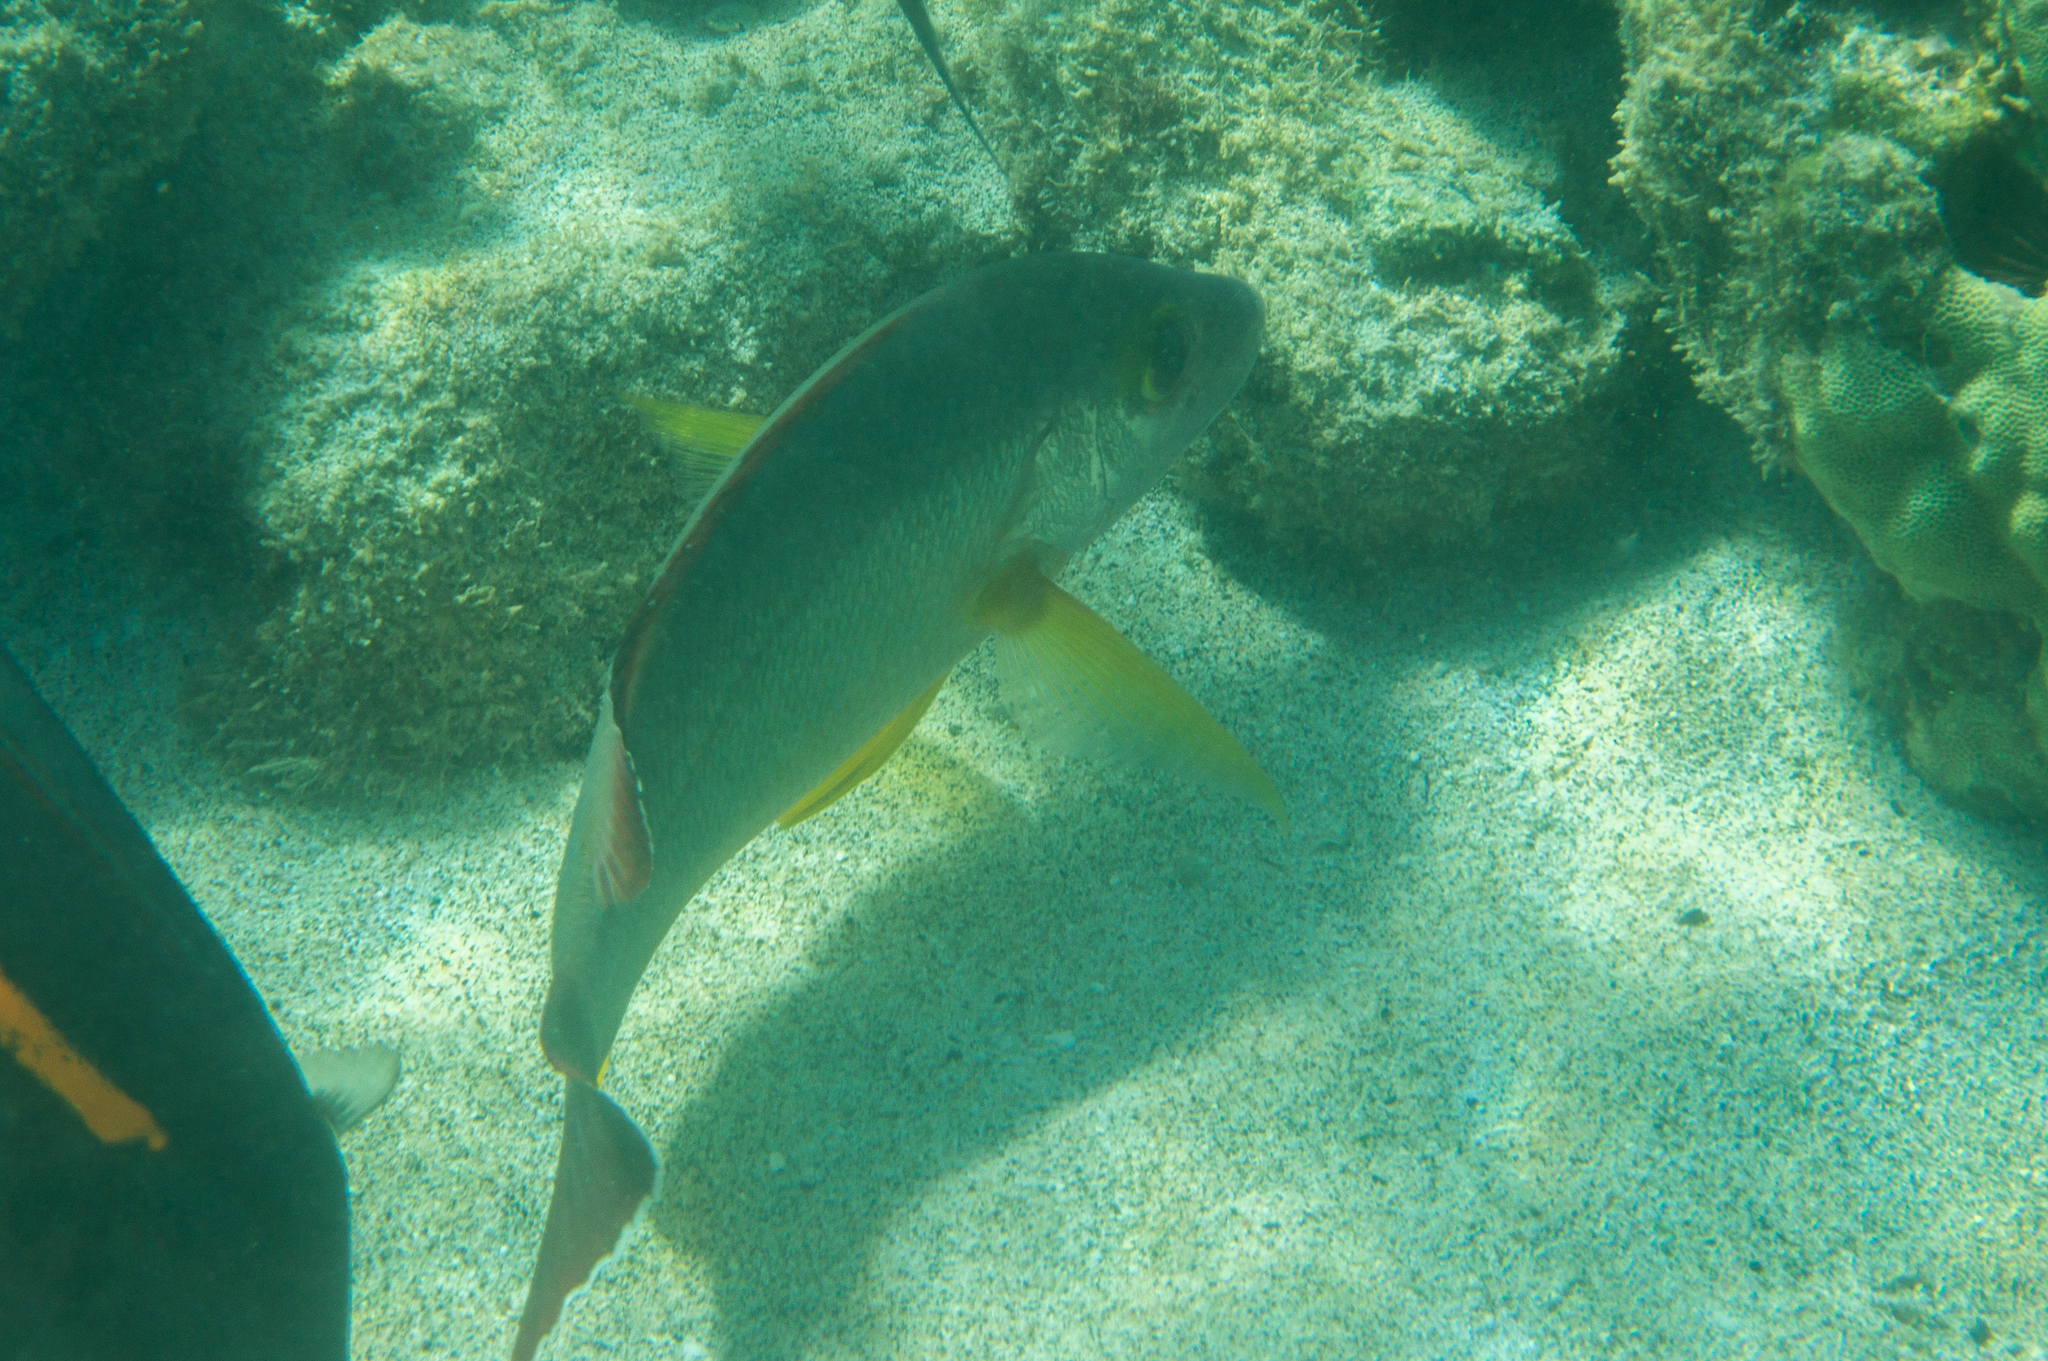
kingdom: Animalia
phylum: Chordata
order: Perciformes
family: Lutjanidae
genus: Lutjanus
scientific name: Lutjanus fulvus
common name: Blacktail snapper
